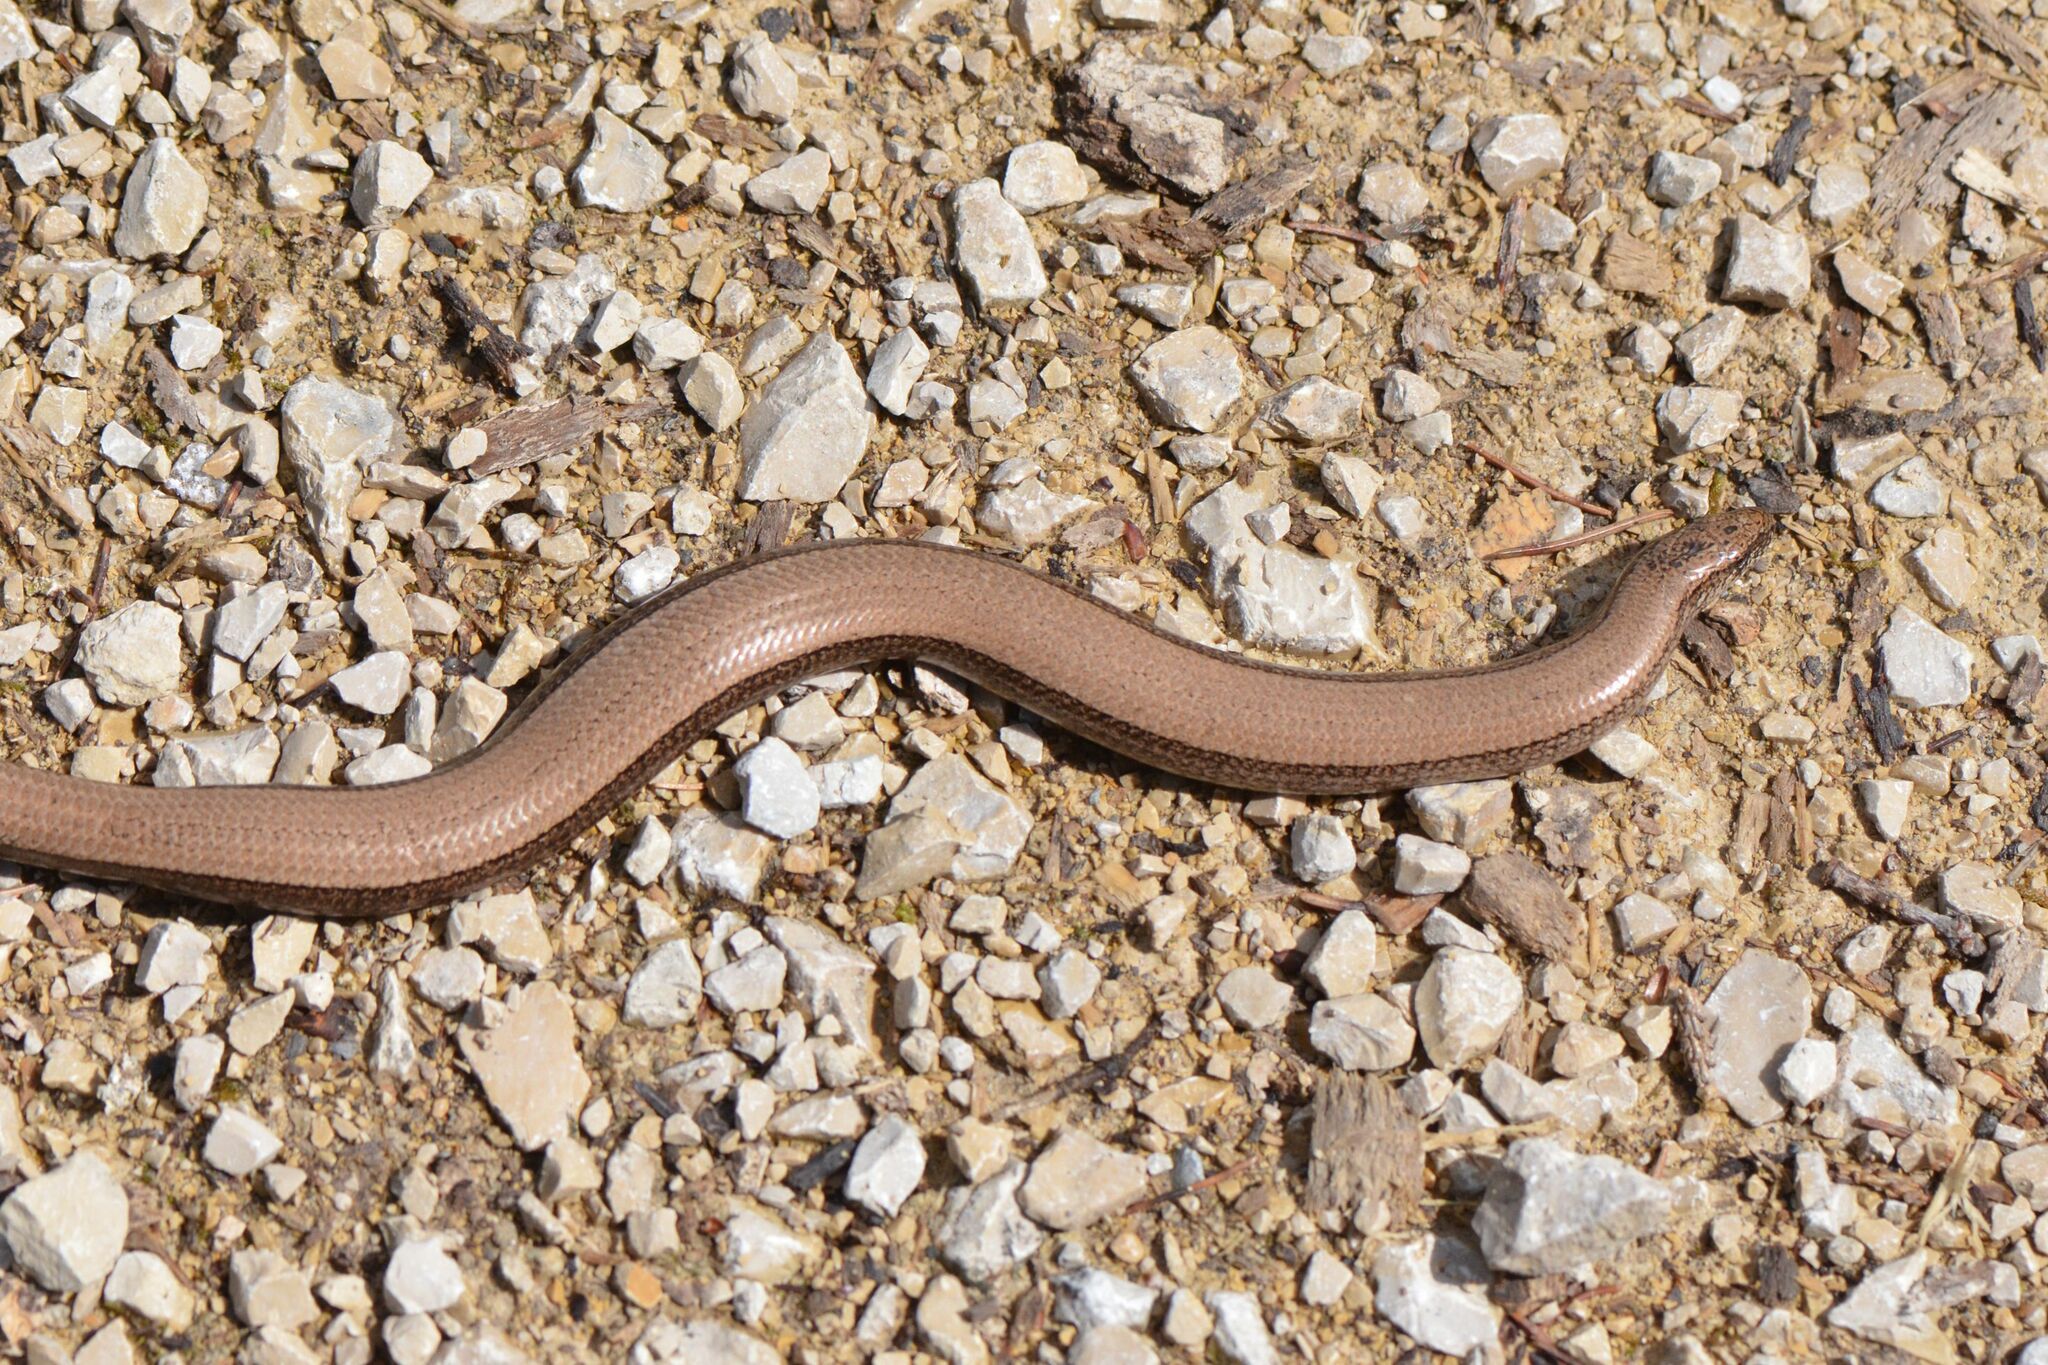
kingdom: Animalia
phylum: Chordata
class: Squamata
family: Anguidae
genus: Anguis
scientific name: Anguis fragilis
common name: Slow worm
